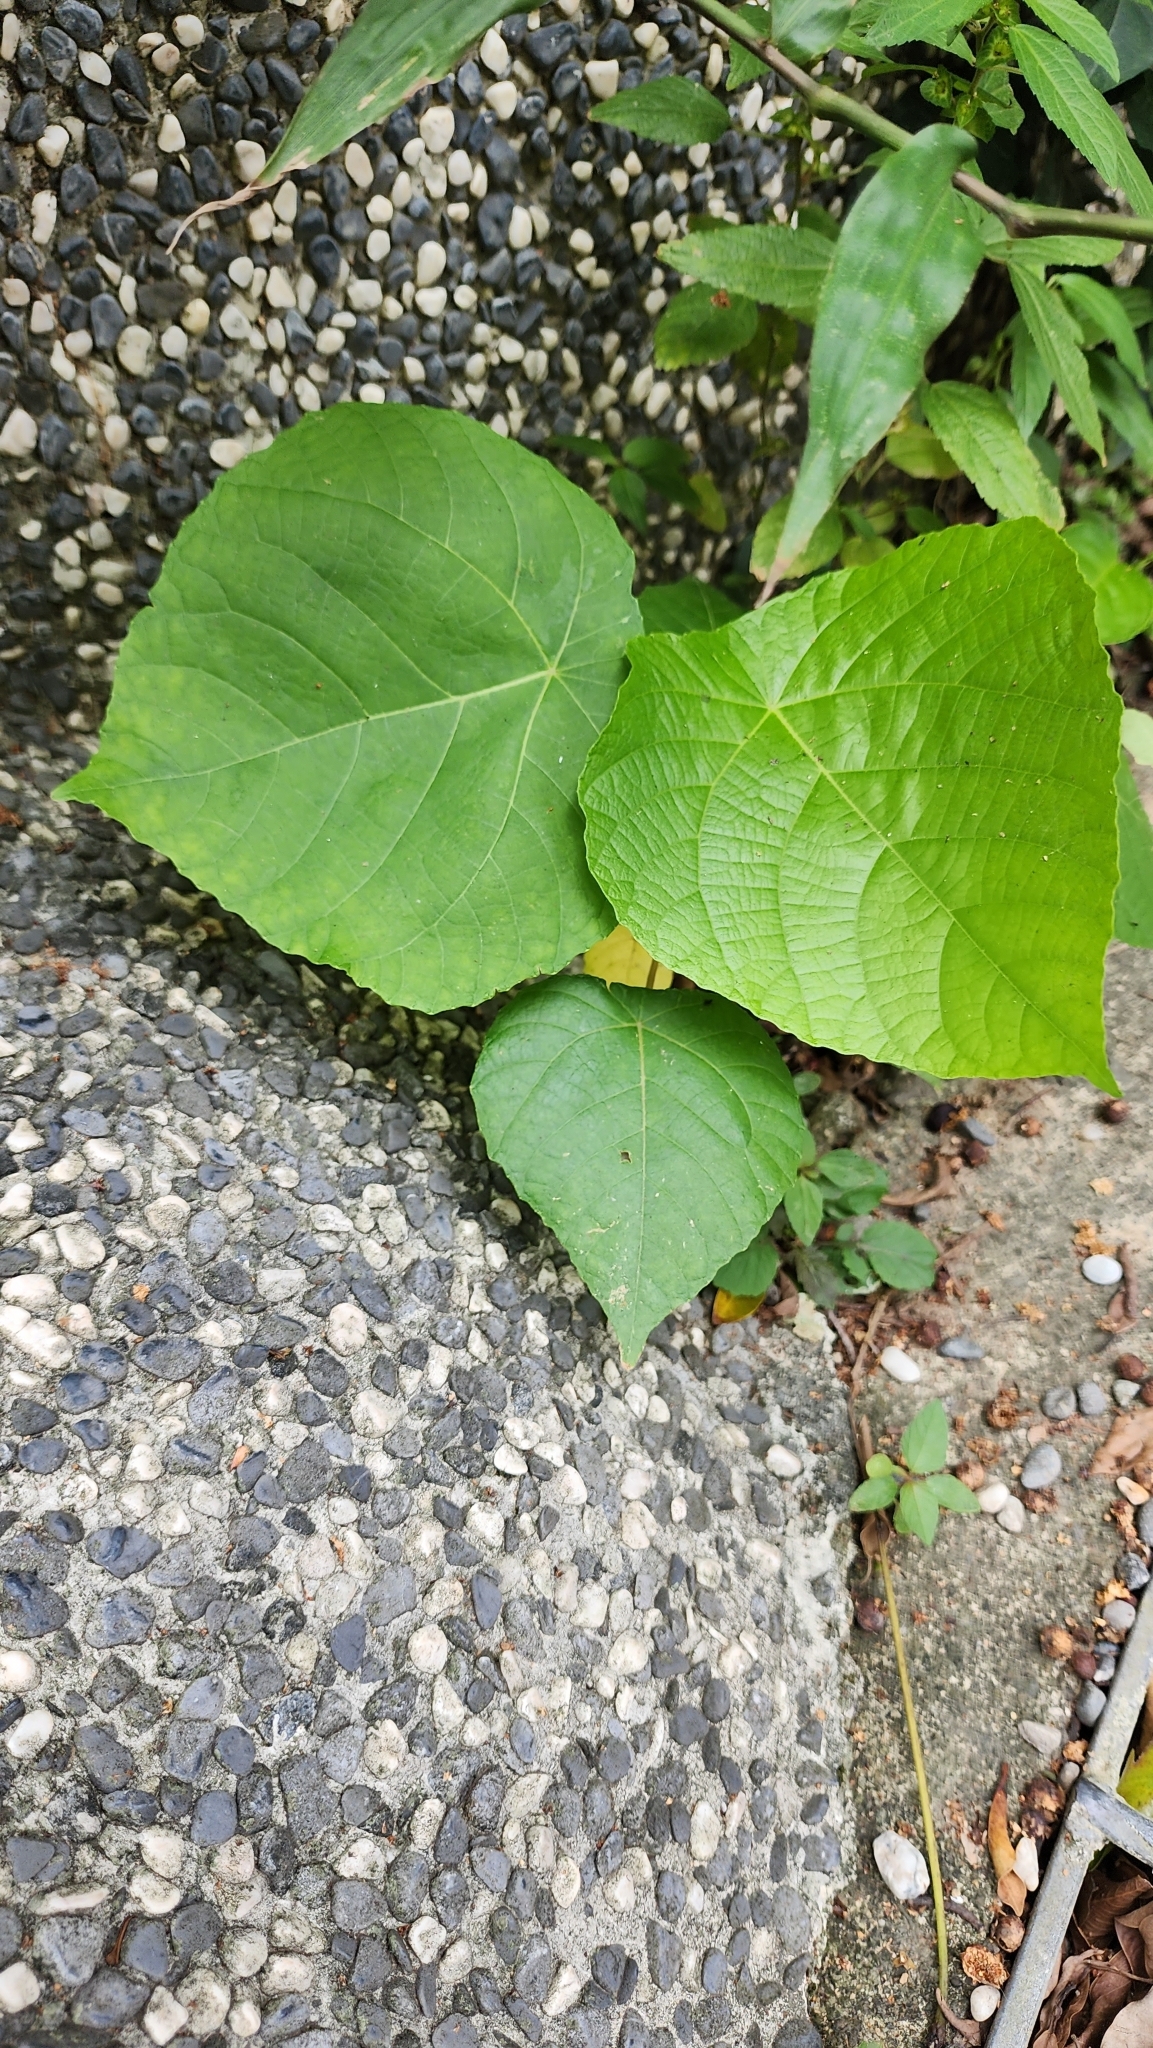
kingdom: Plantae
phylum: Tracheophyta
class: Magnoliopsida
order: Malpighiales
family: Euphorbiaceae
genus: Macaranga
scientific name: Macaranga tanarius
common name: Parasol leaf tree
